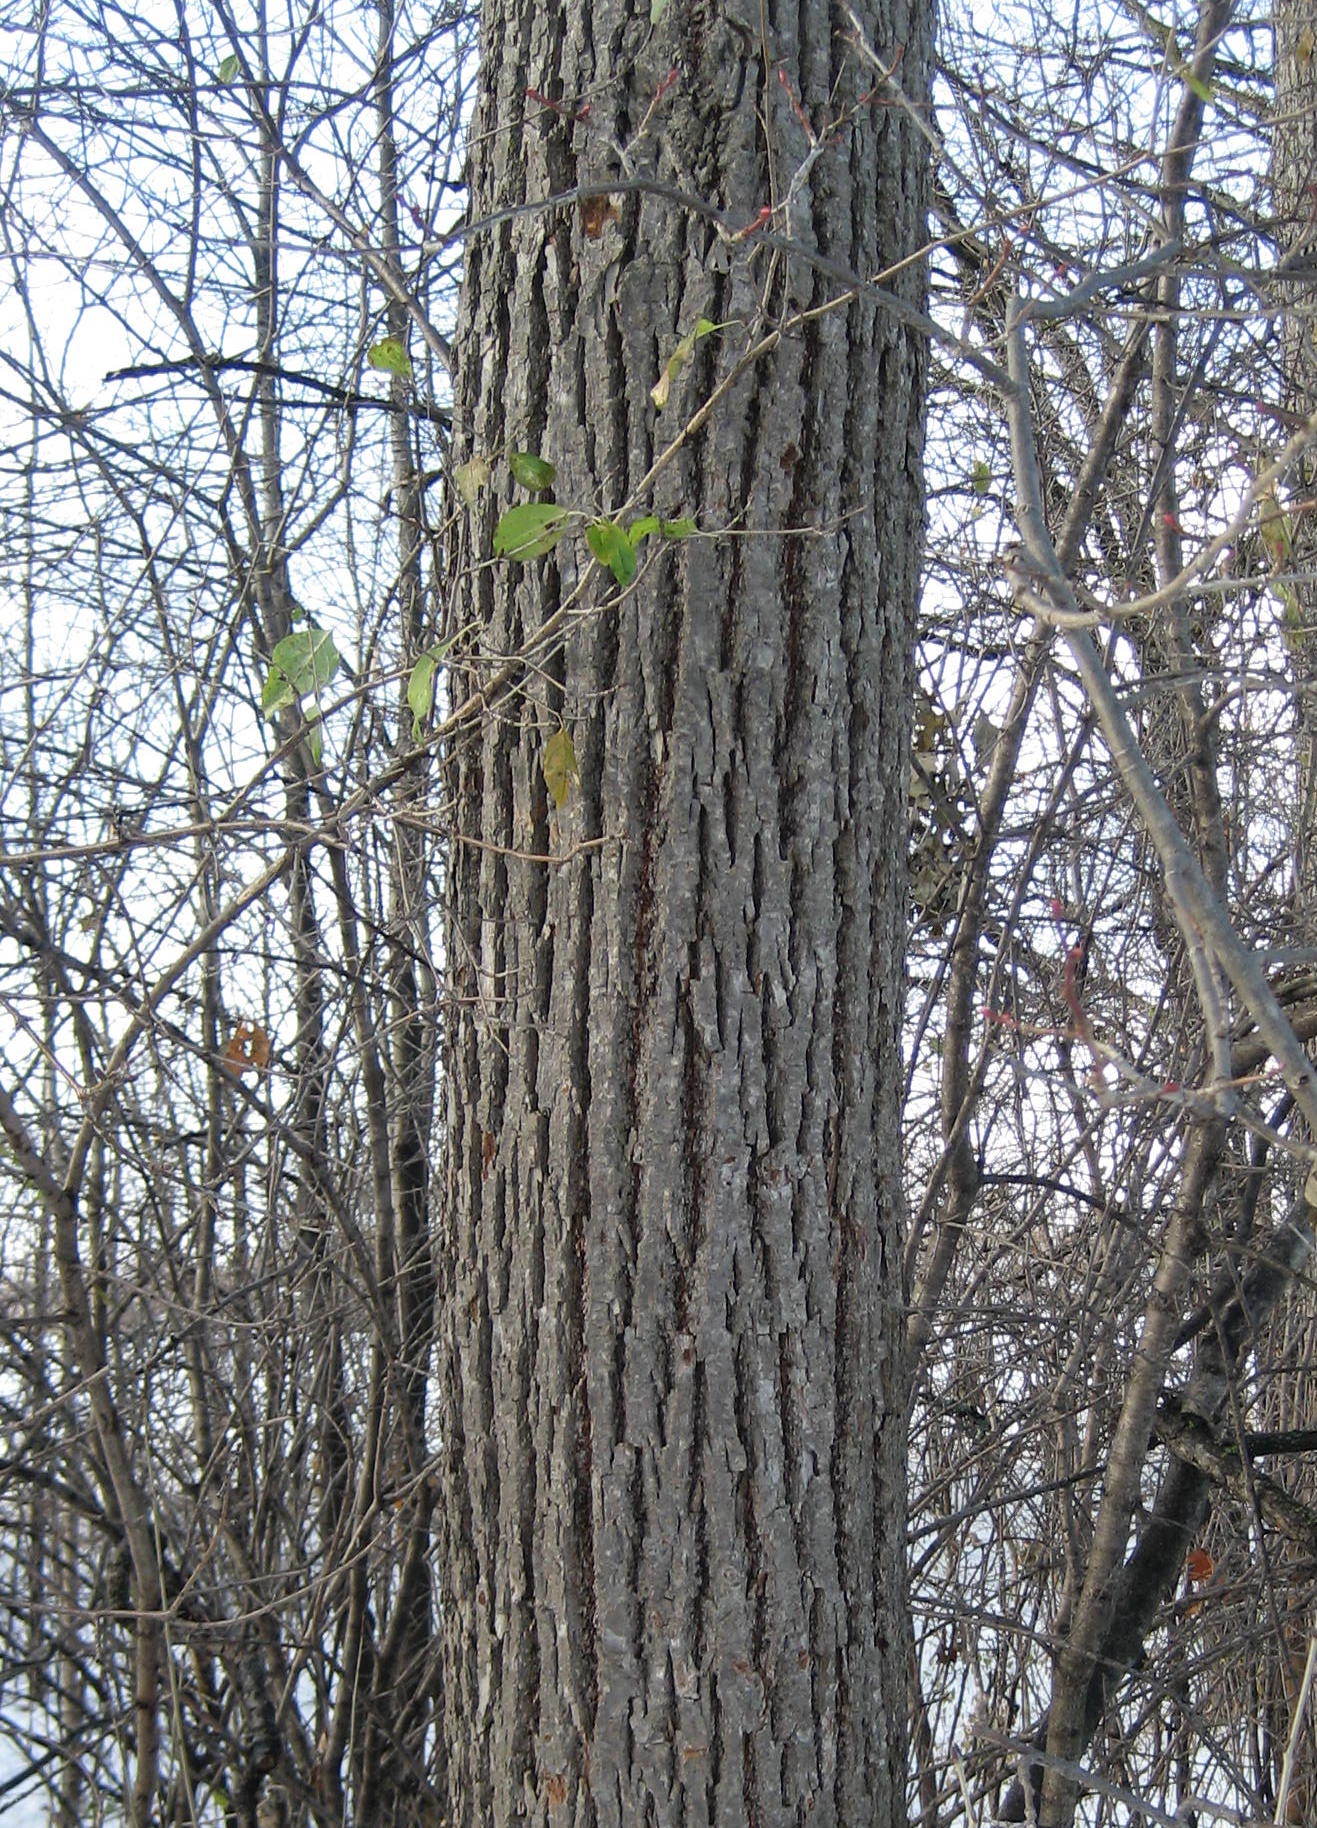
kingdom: Plantae
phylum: Tracheophyta
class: Magnoliopsida
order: Malvales
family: Malvaceae
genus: Tilia
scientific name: Tilia americana
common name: Basswood
